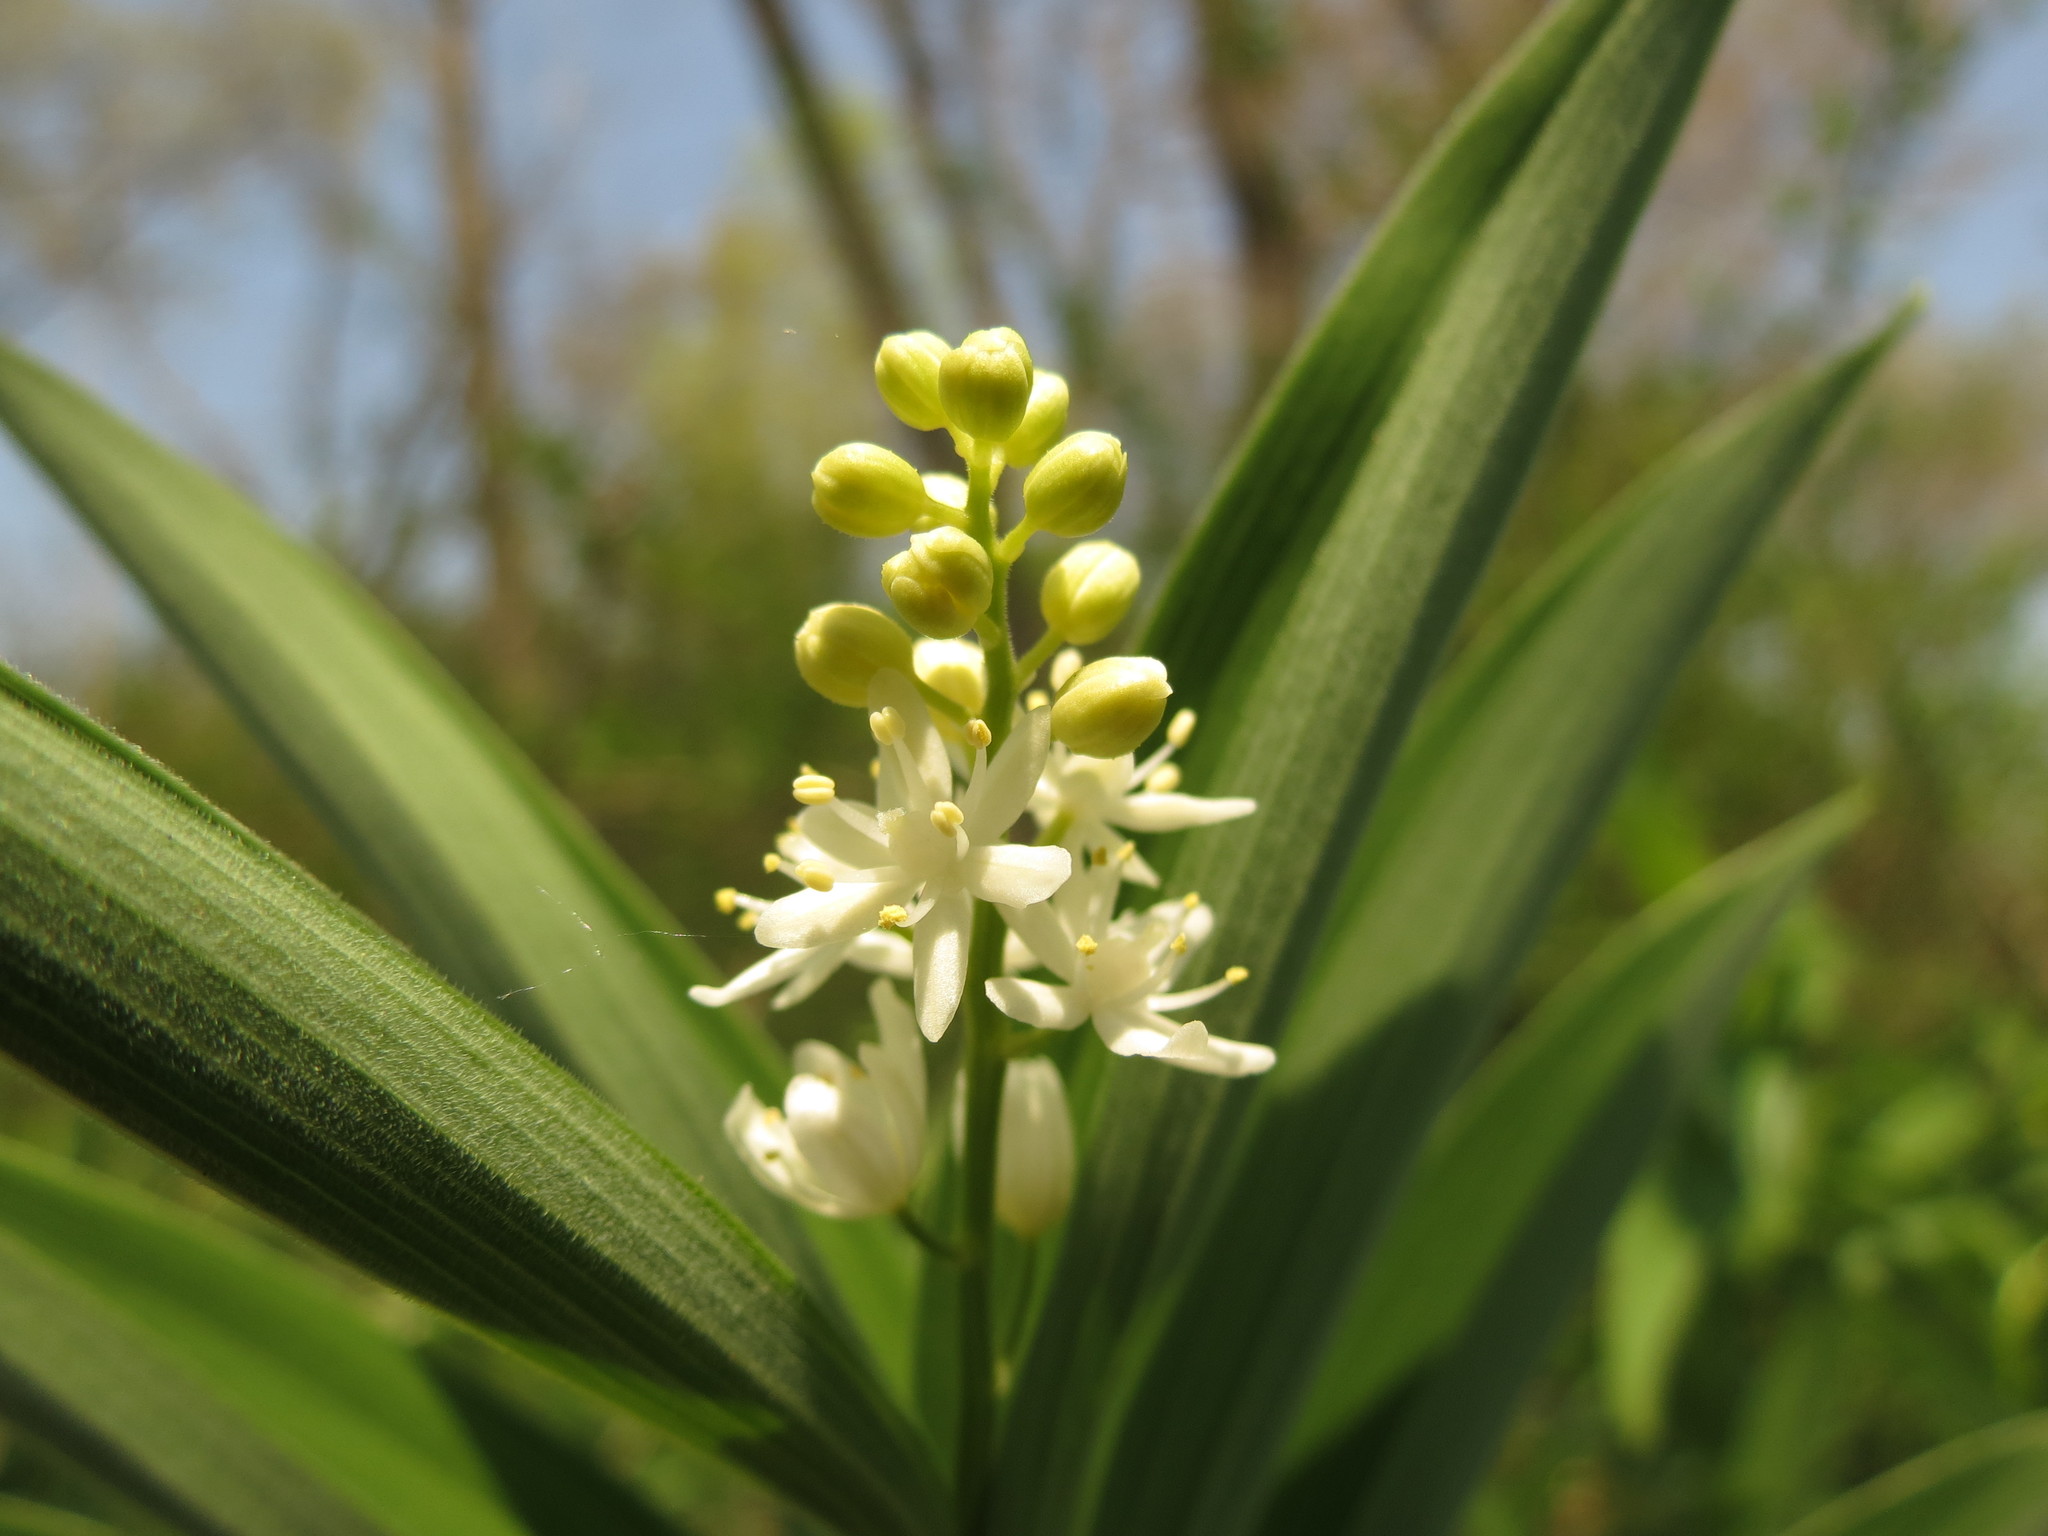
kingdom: Plantae
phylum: Tracheophyta
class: Liliopsida
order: Asparagales
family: Asparagaceae
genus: Maianthemum
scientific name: Maianthemum stellatum
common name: Little false solomon's seal
